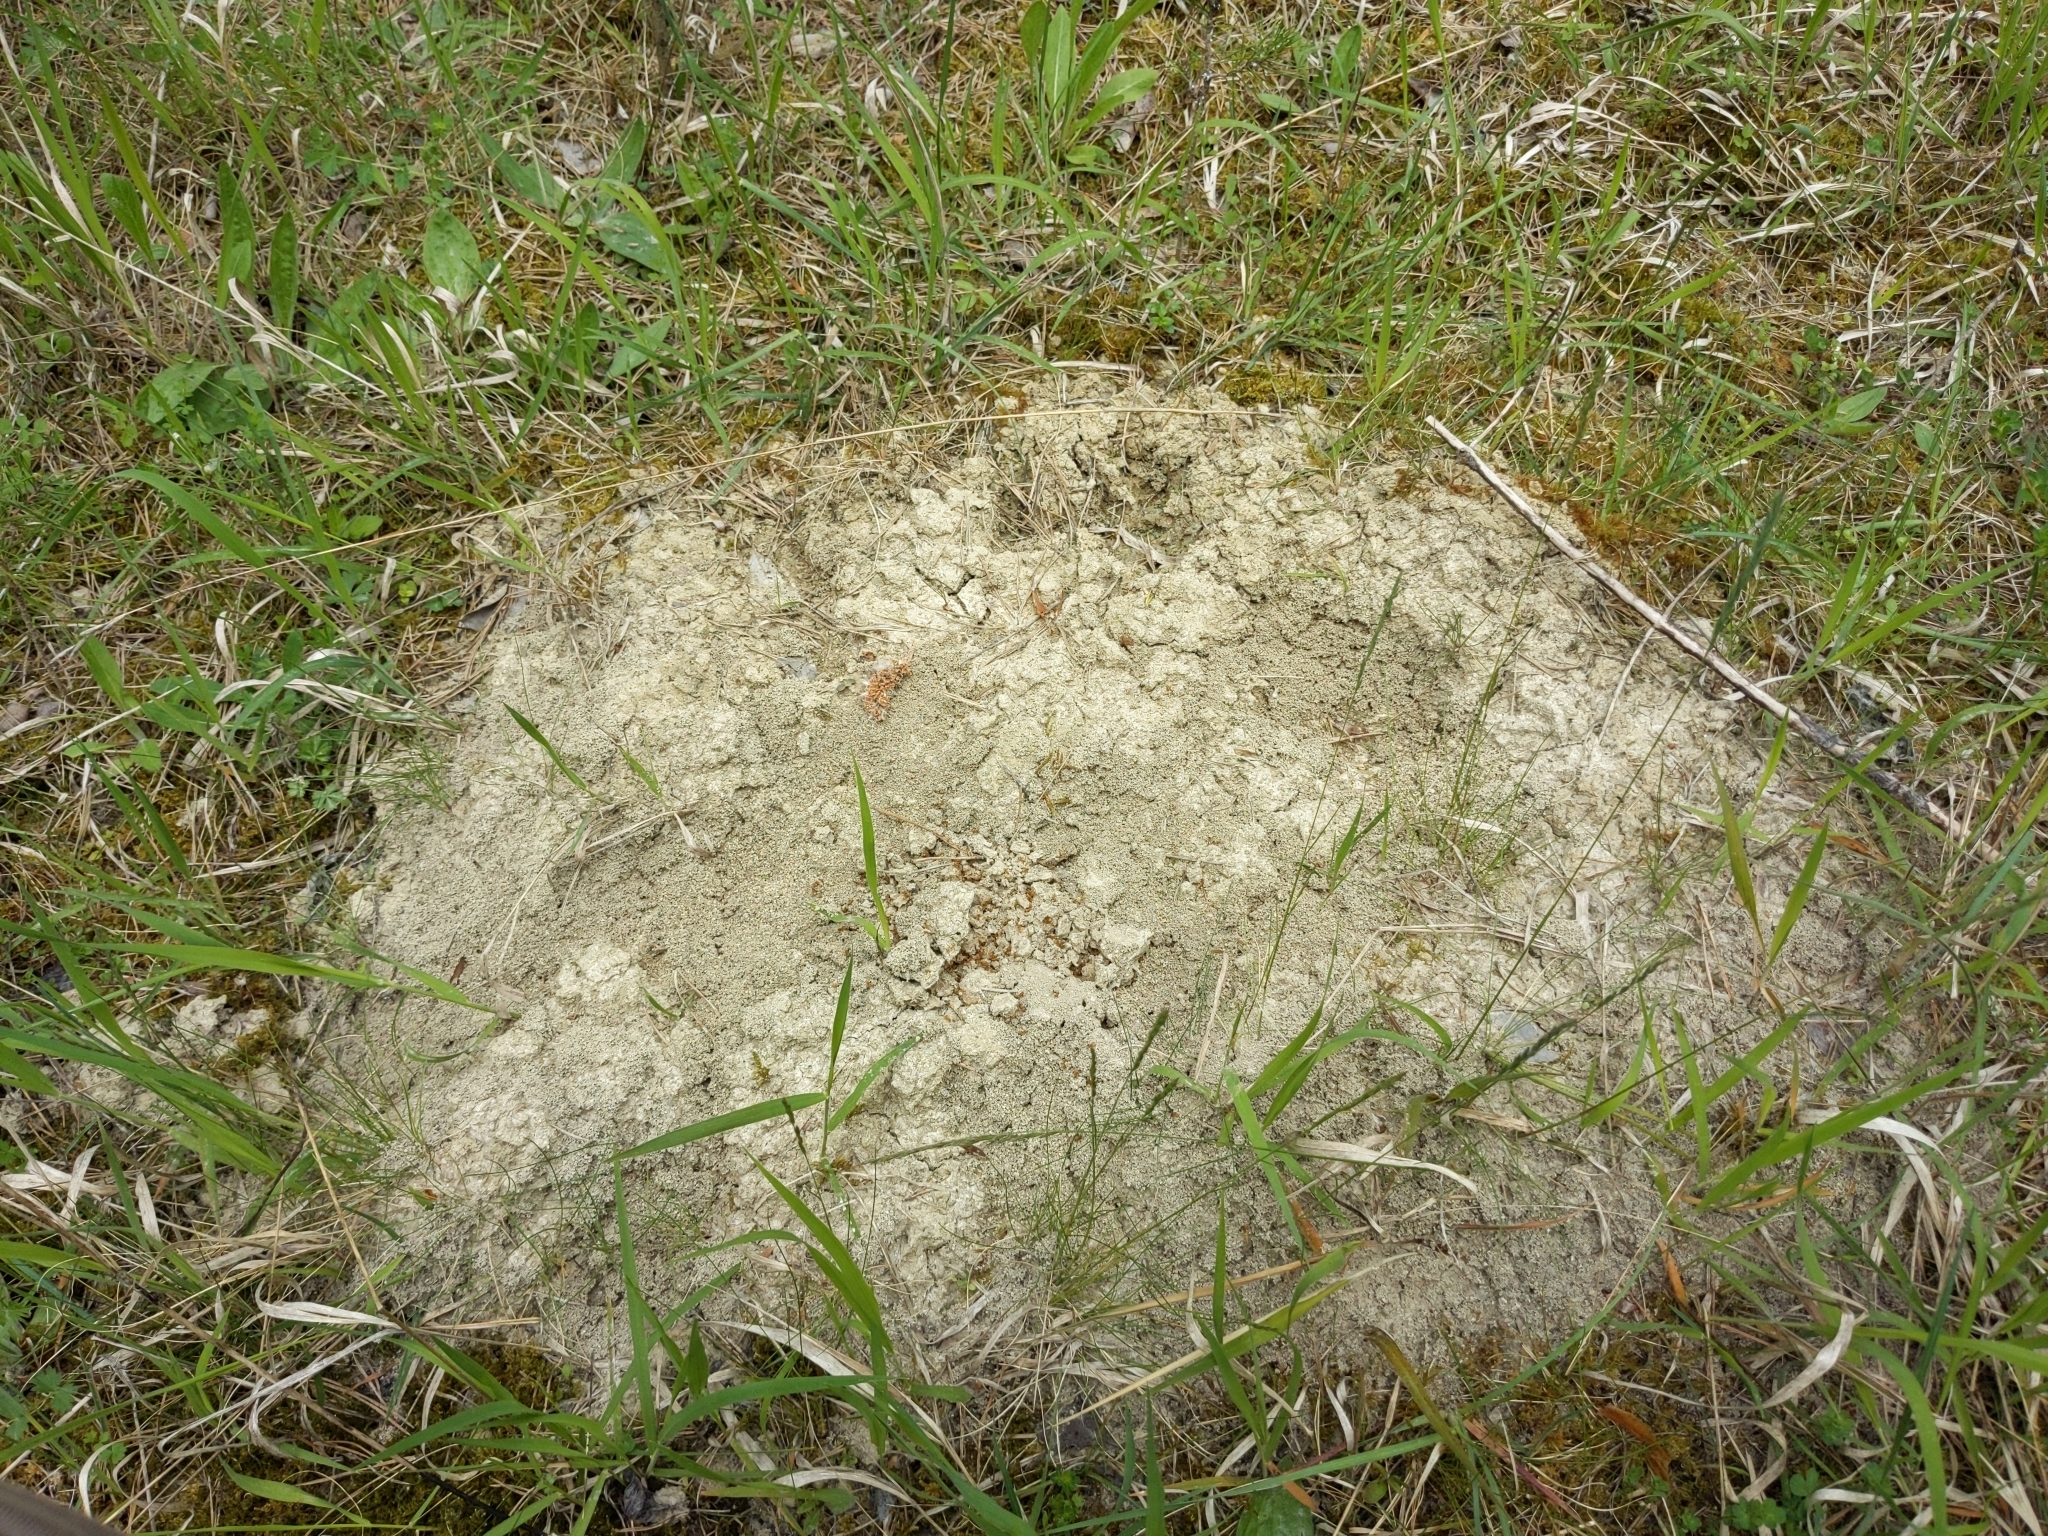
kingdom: Animalia
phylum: Arthropoda
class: Insecta
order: Hymenoptera
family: Formicidae
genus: Lasius
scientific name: Lasius flavus
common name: Blond field ant
